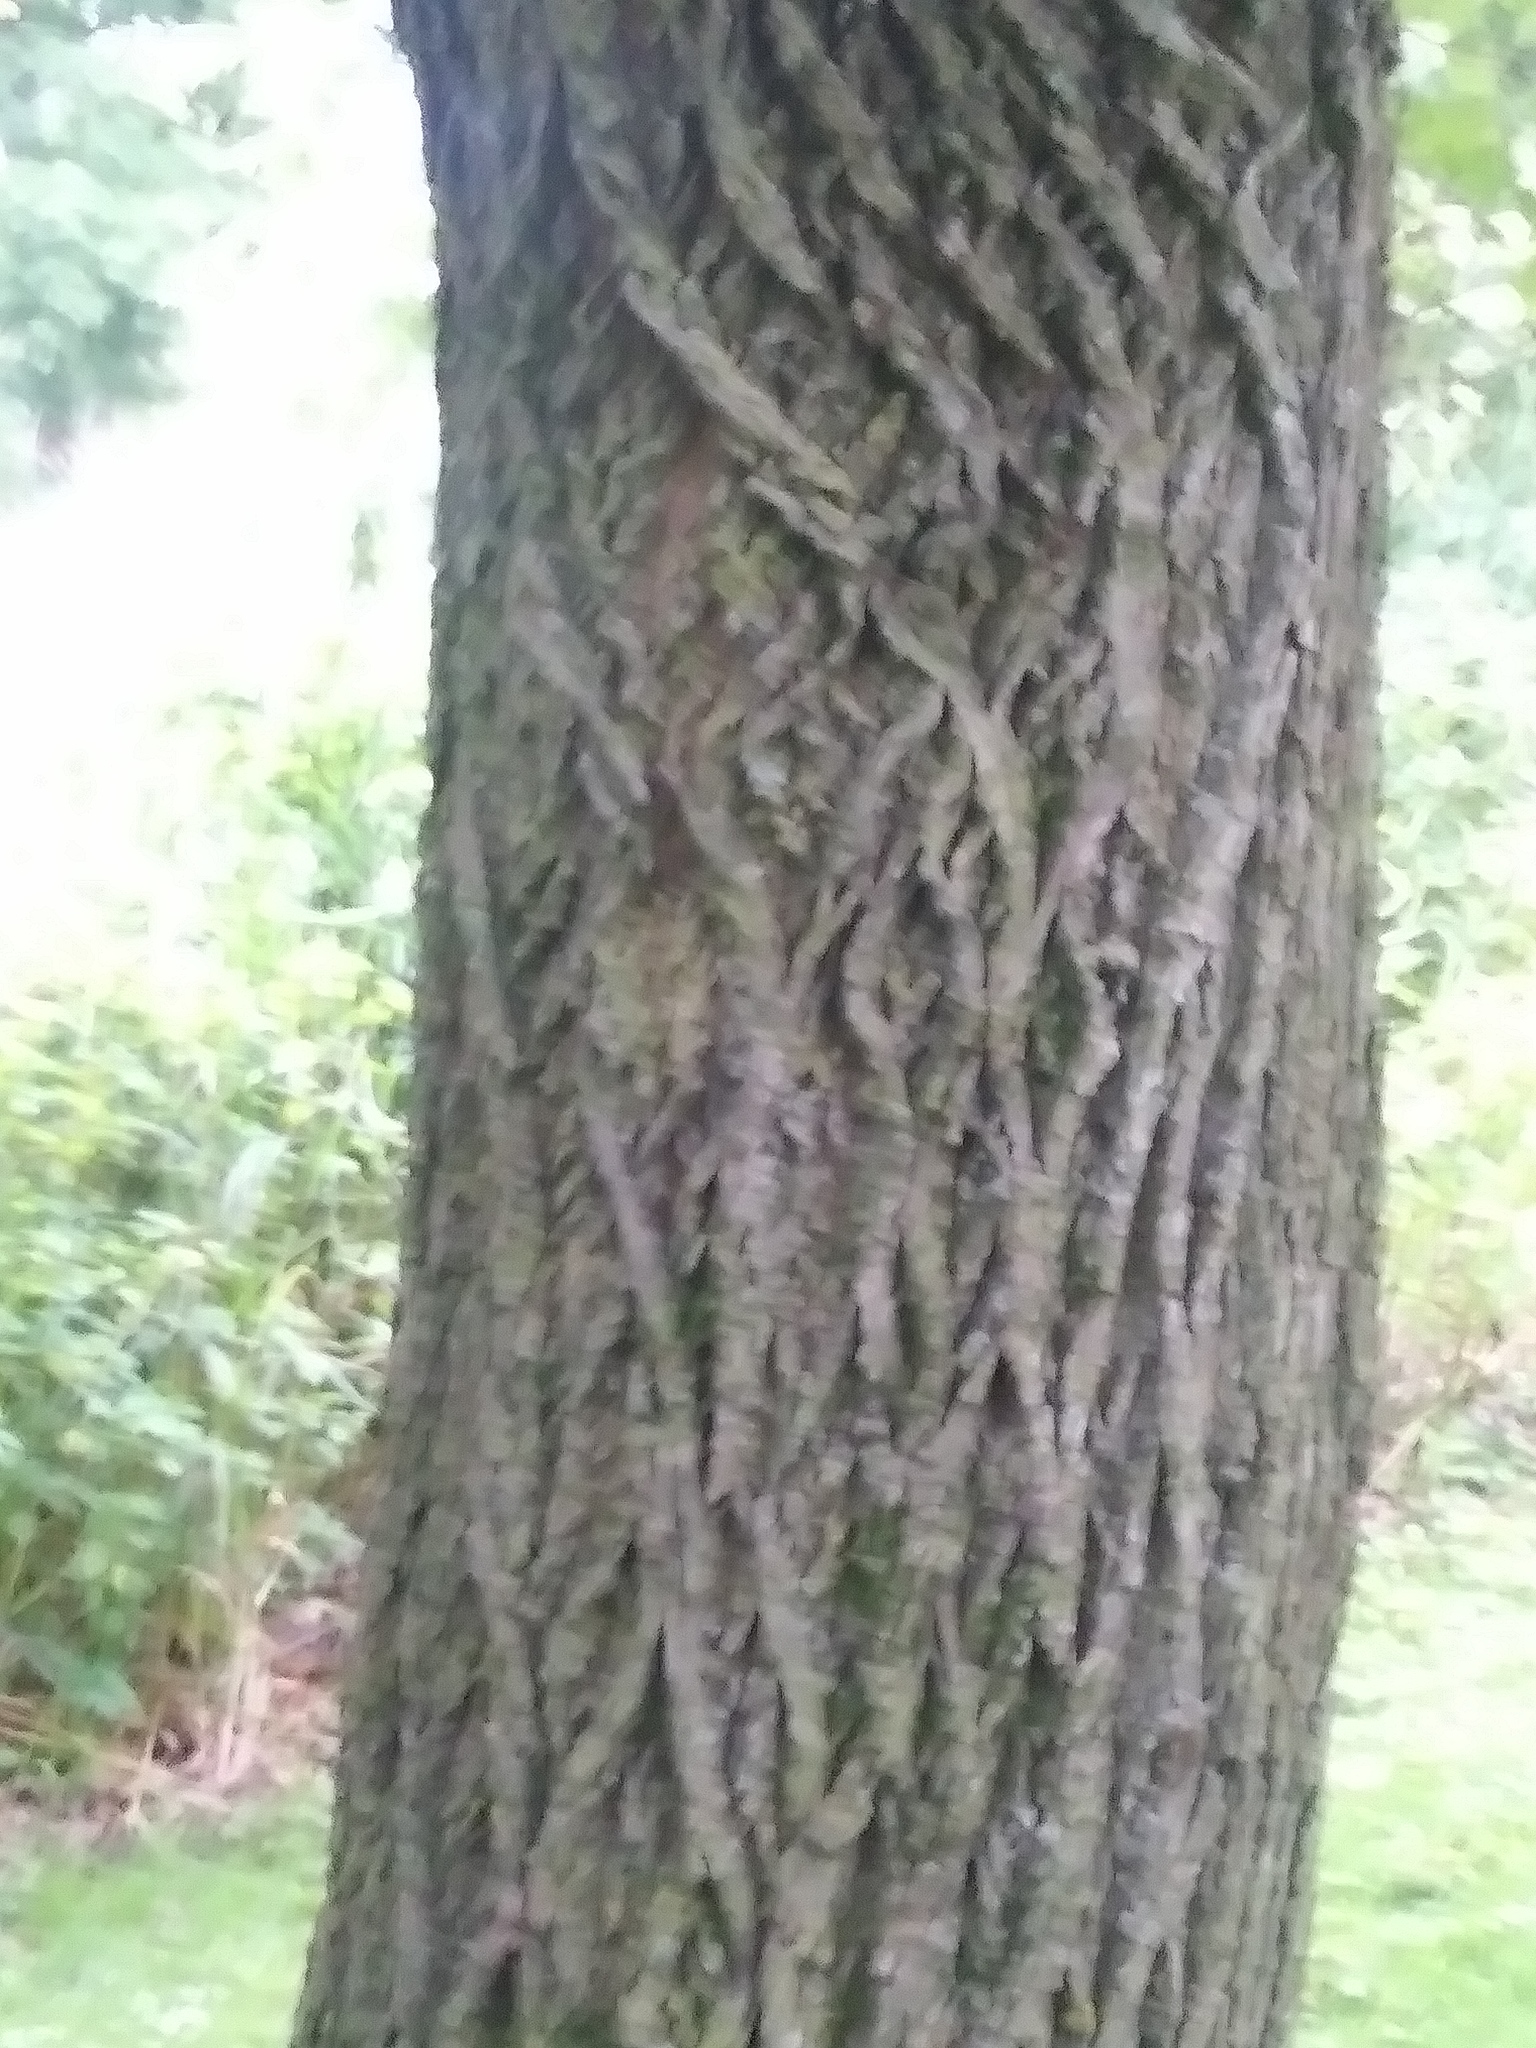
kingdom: Plantae
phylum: Tracheophyta
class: Magnoliopsida
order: Malvales
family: Malvaceae
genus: Tilia
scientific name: Tilia americana
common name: Basswood
